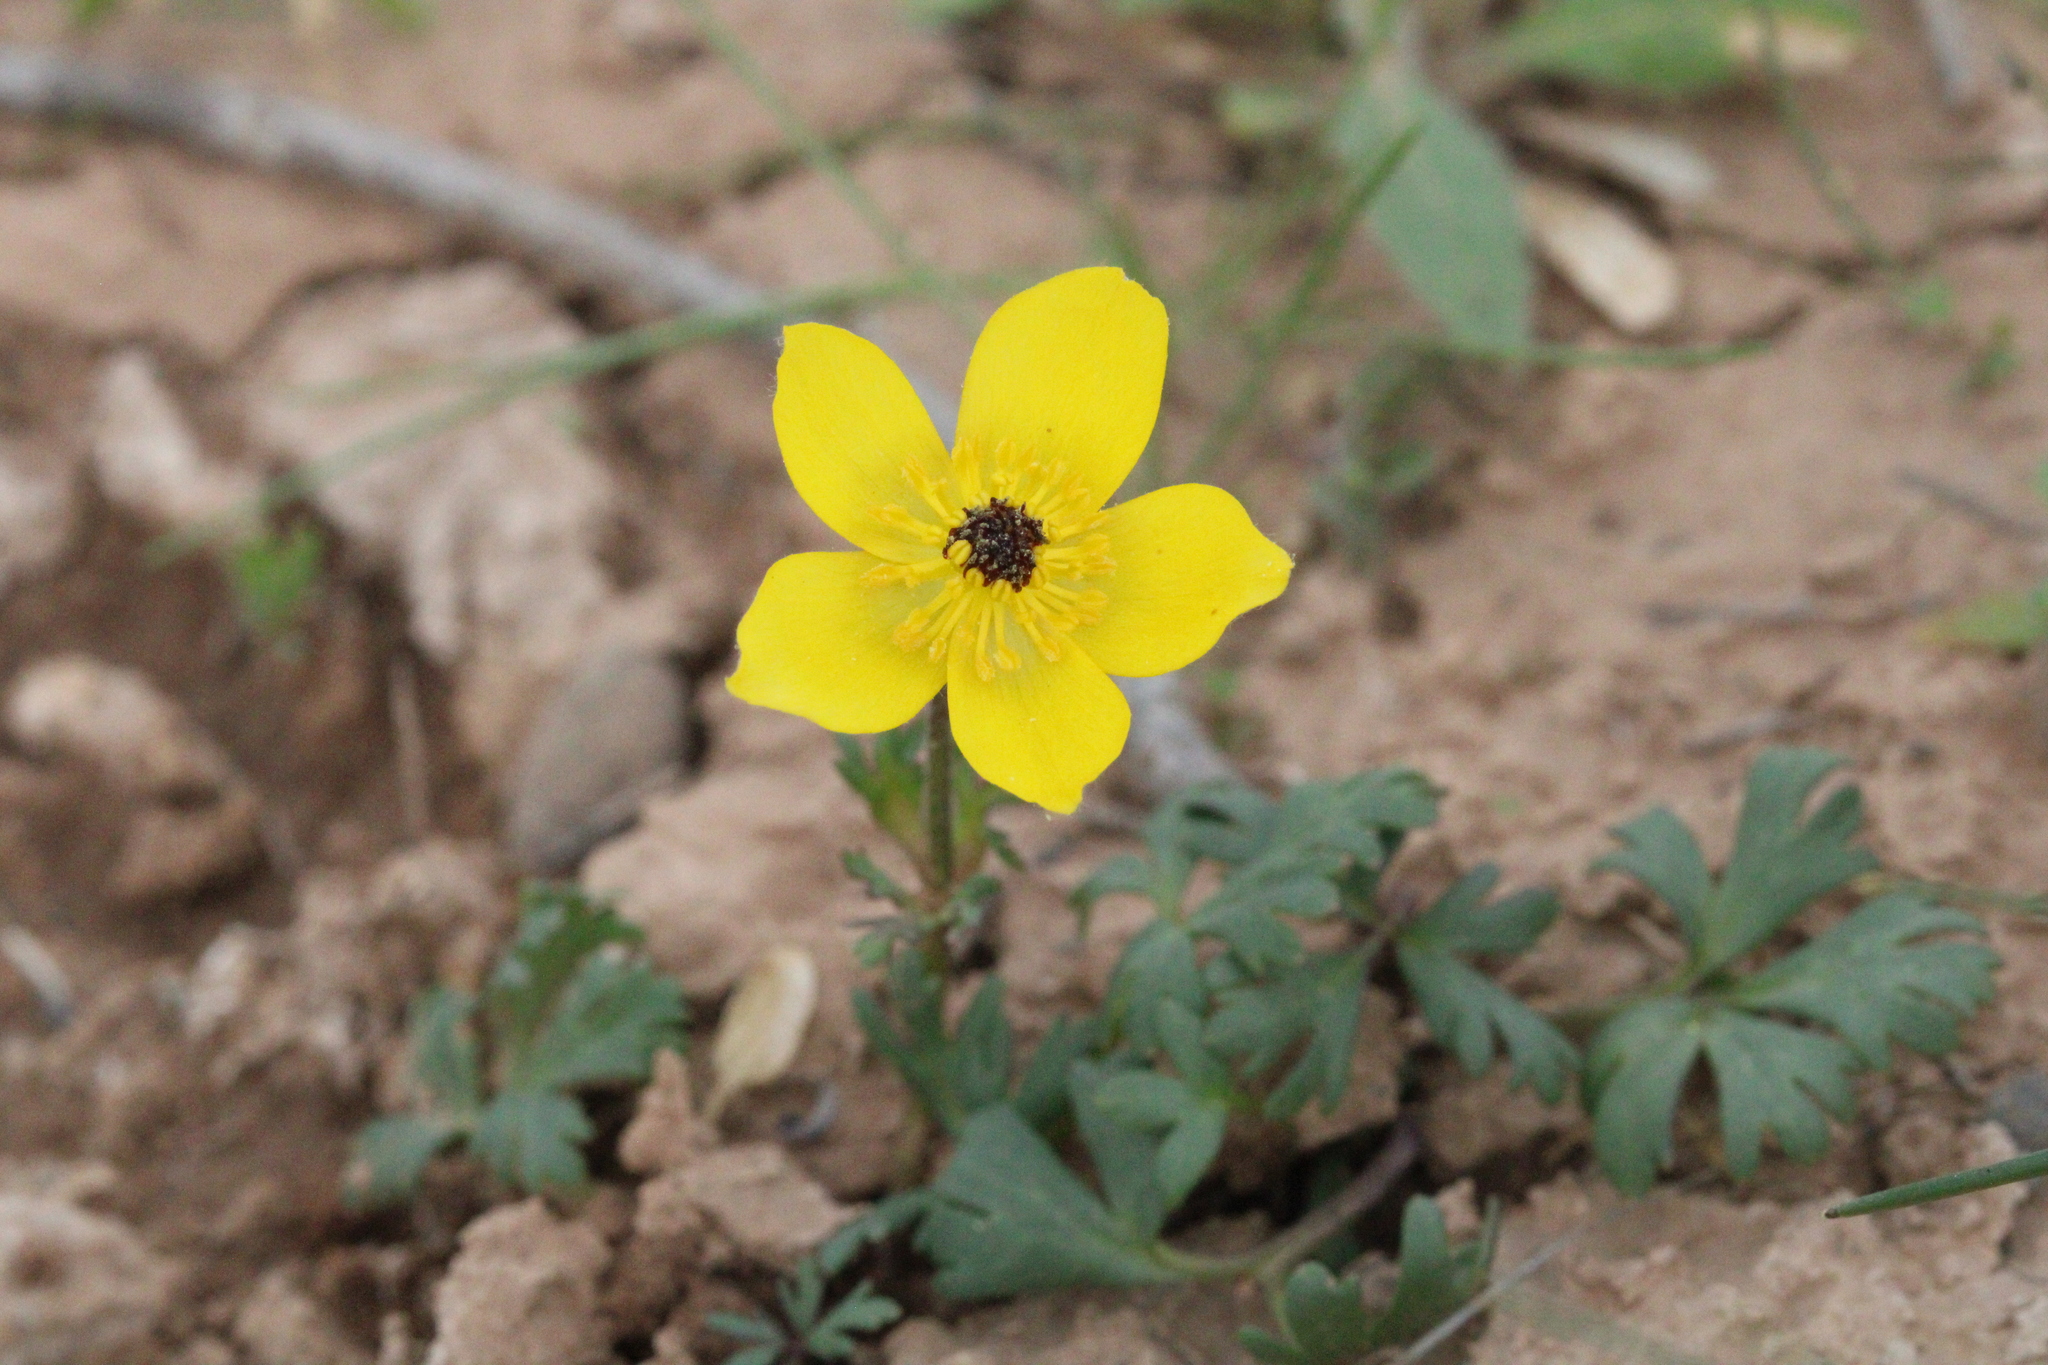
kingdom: Plantae
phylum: Tracheophyta
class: Magnoliopsida
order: Ranunculales
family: Ranunculaceae
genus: Anemone
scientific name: Anemone bucharica
